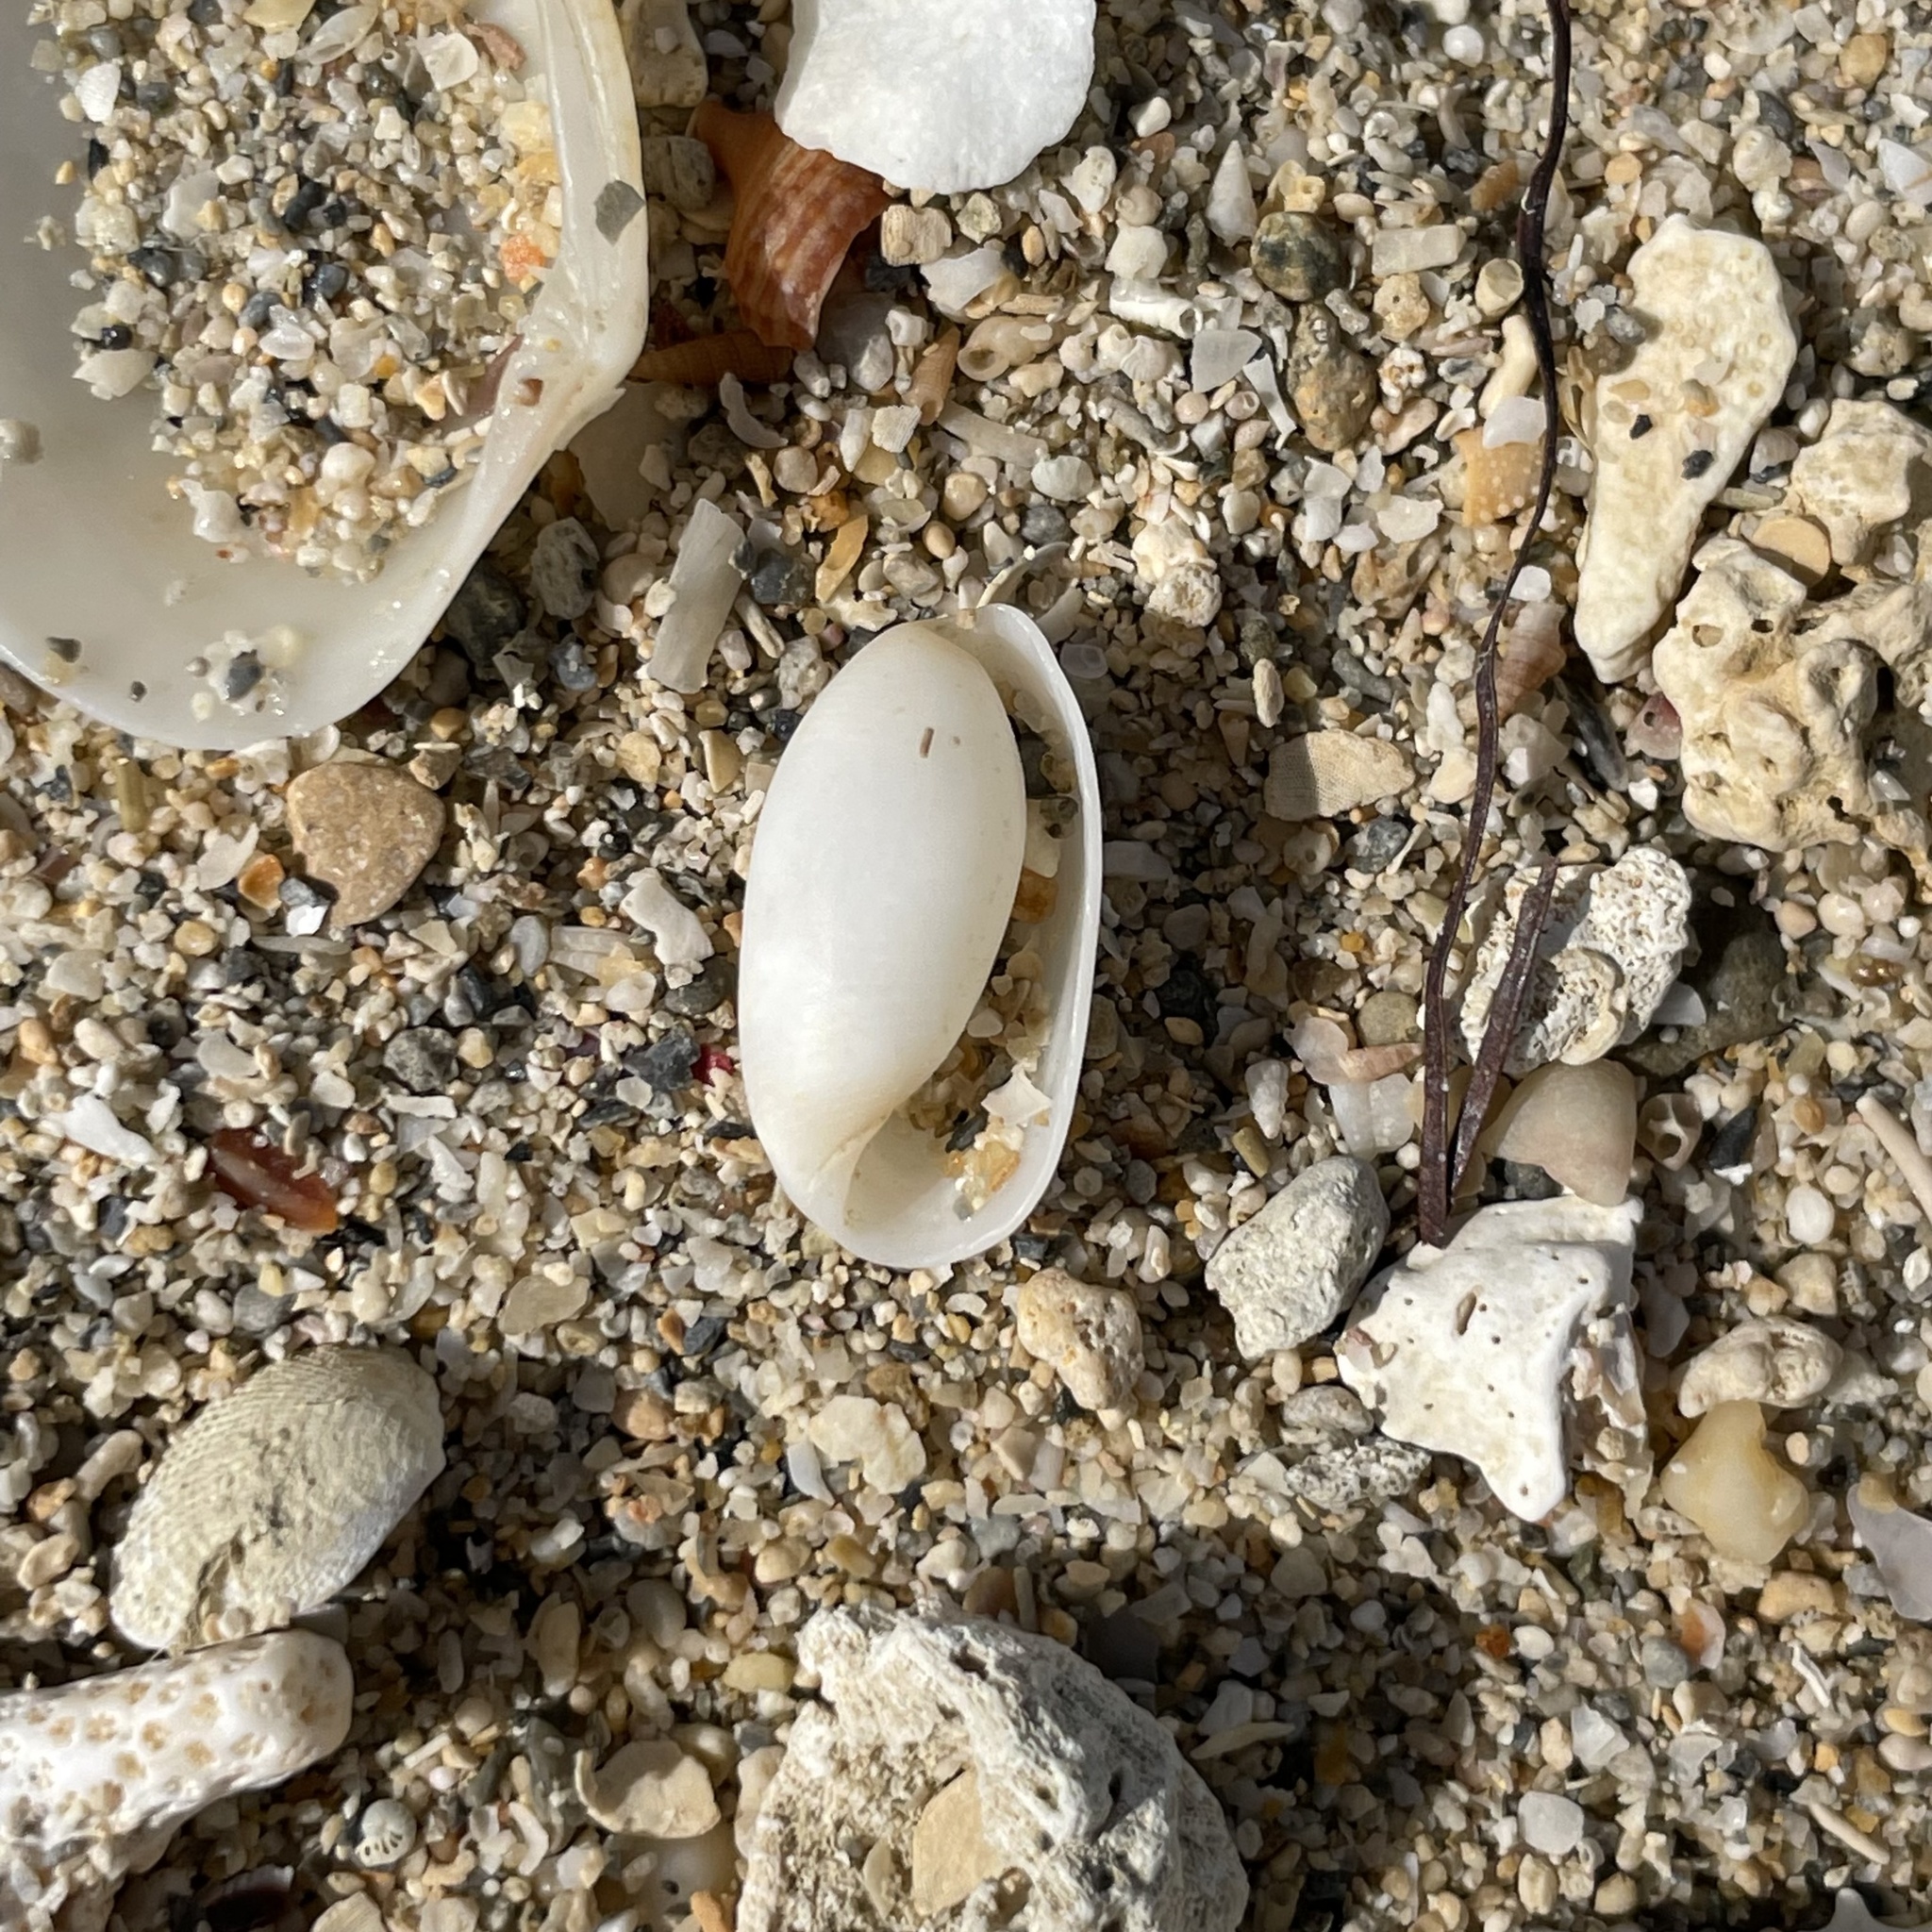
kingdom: Animalia
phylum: Mollusca
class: Gastropoda
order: Cephalaspidea
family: Haminoeidae
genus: Aliculastrum
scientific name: Aliculastrum cylindricum
